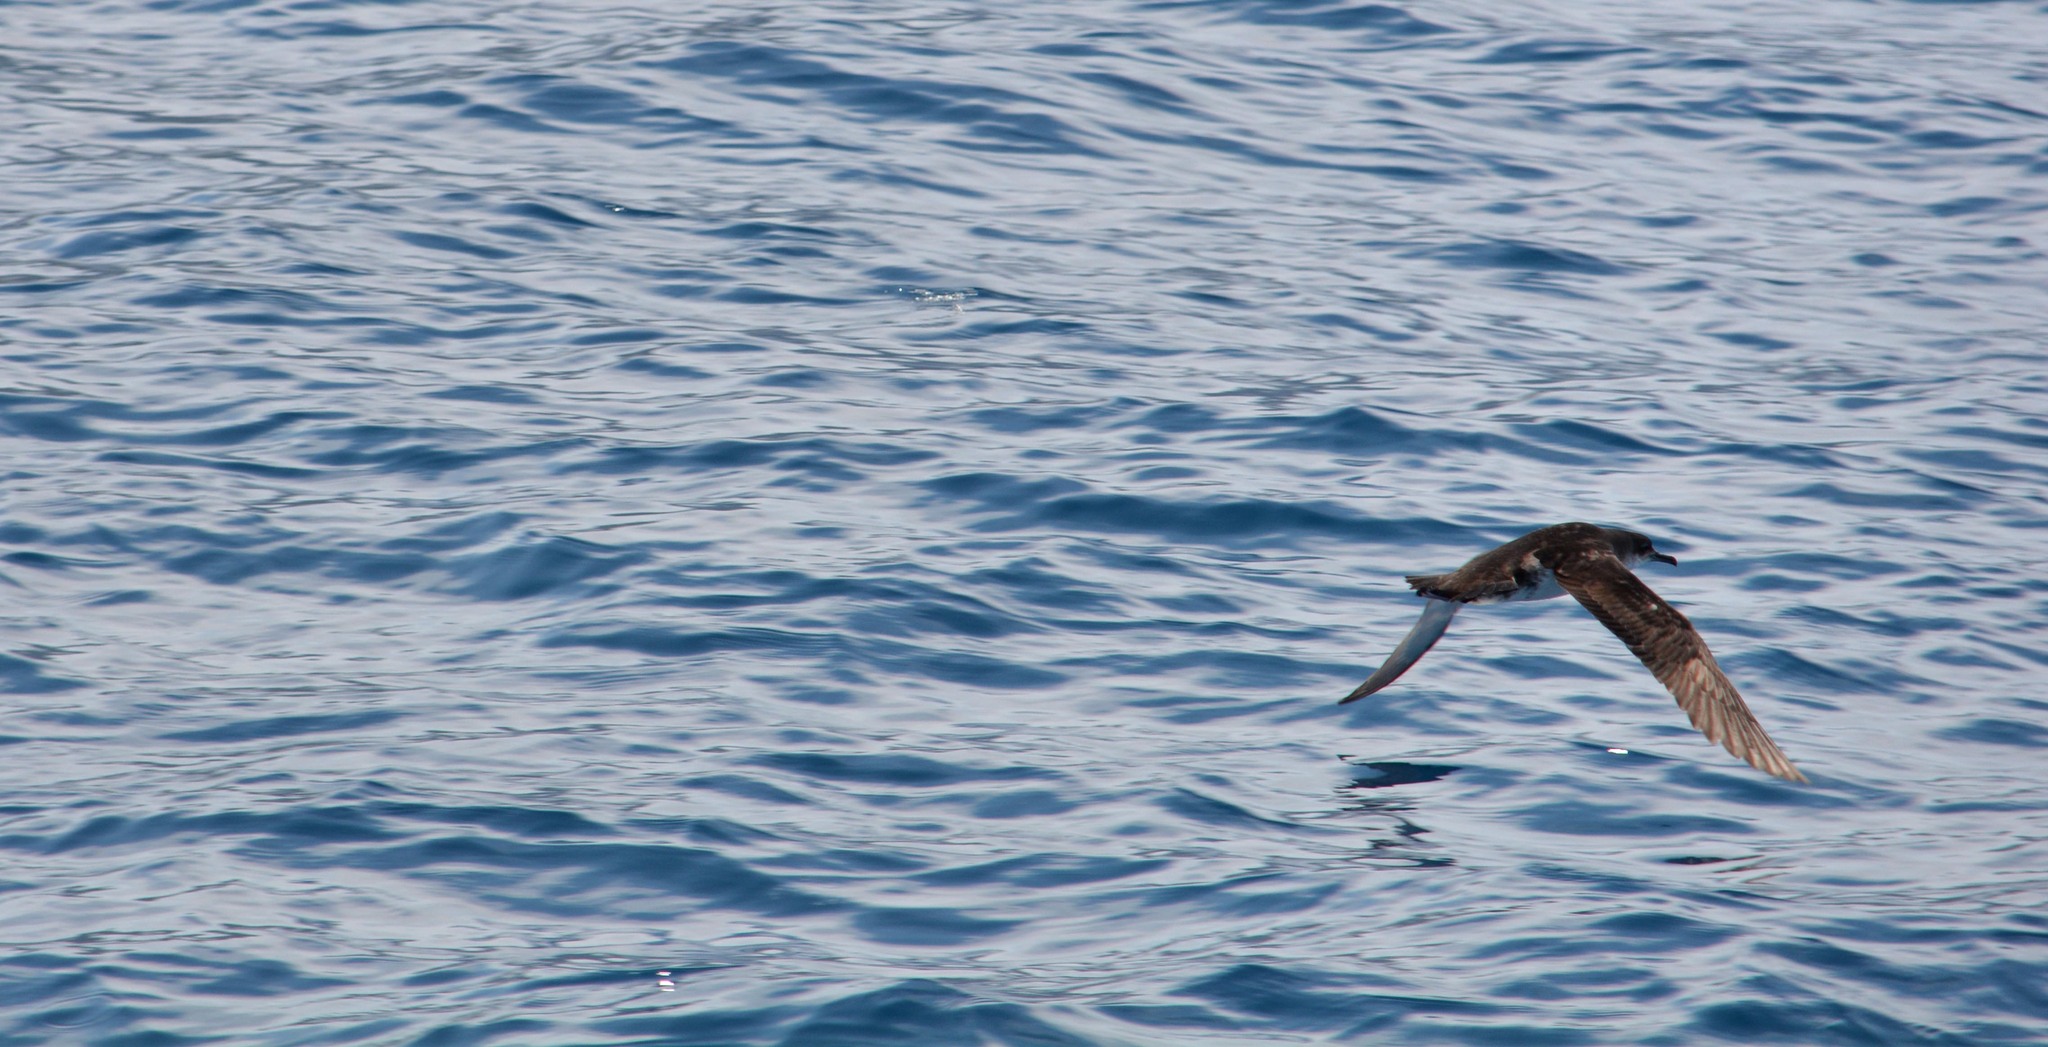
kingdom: Animalia
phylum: Chordata
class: Aves
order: Procellariiformes
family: Procellariidae
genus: Puffinus
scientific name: Puffinus yelkouan
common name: Yelkouan shearwater
